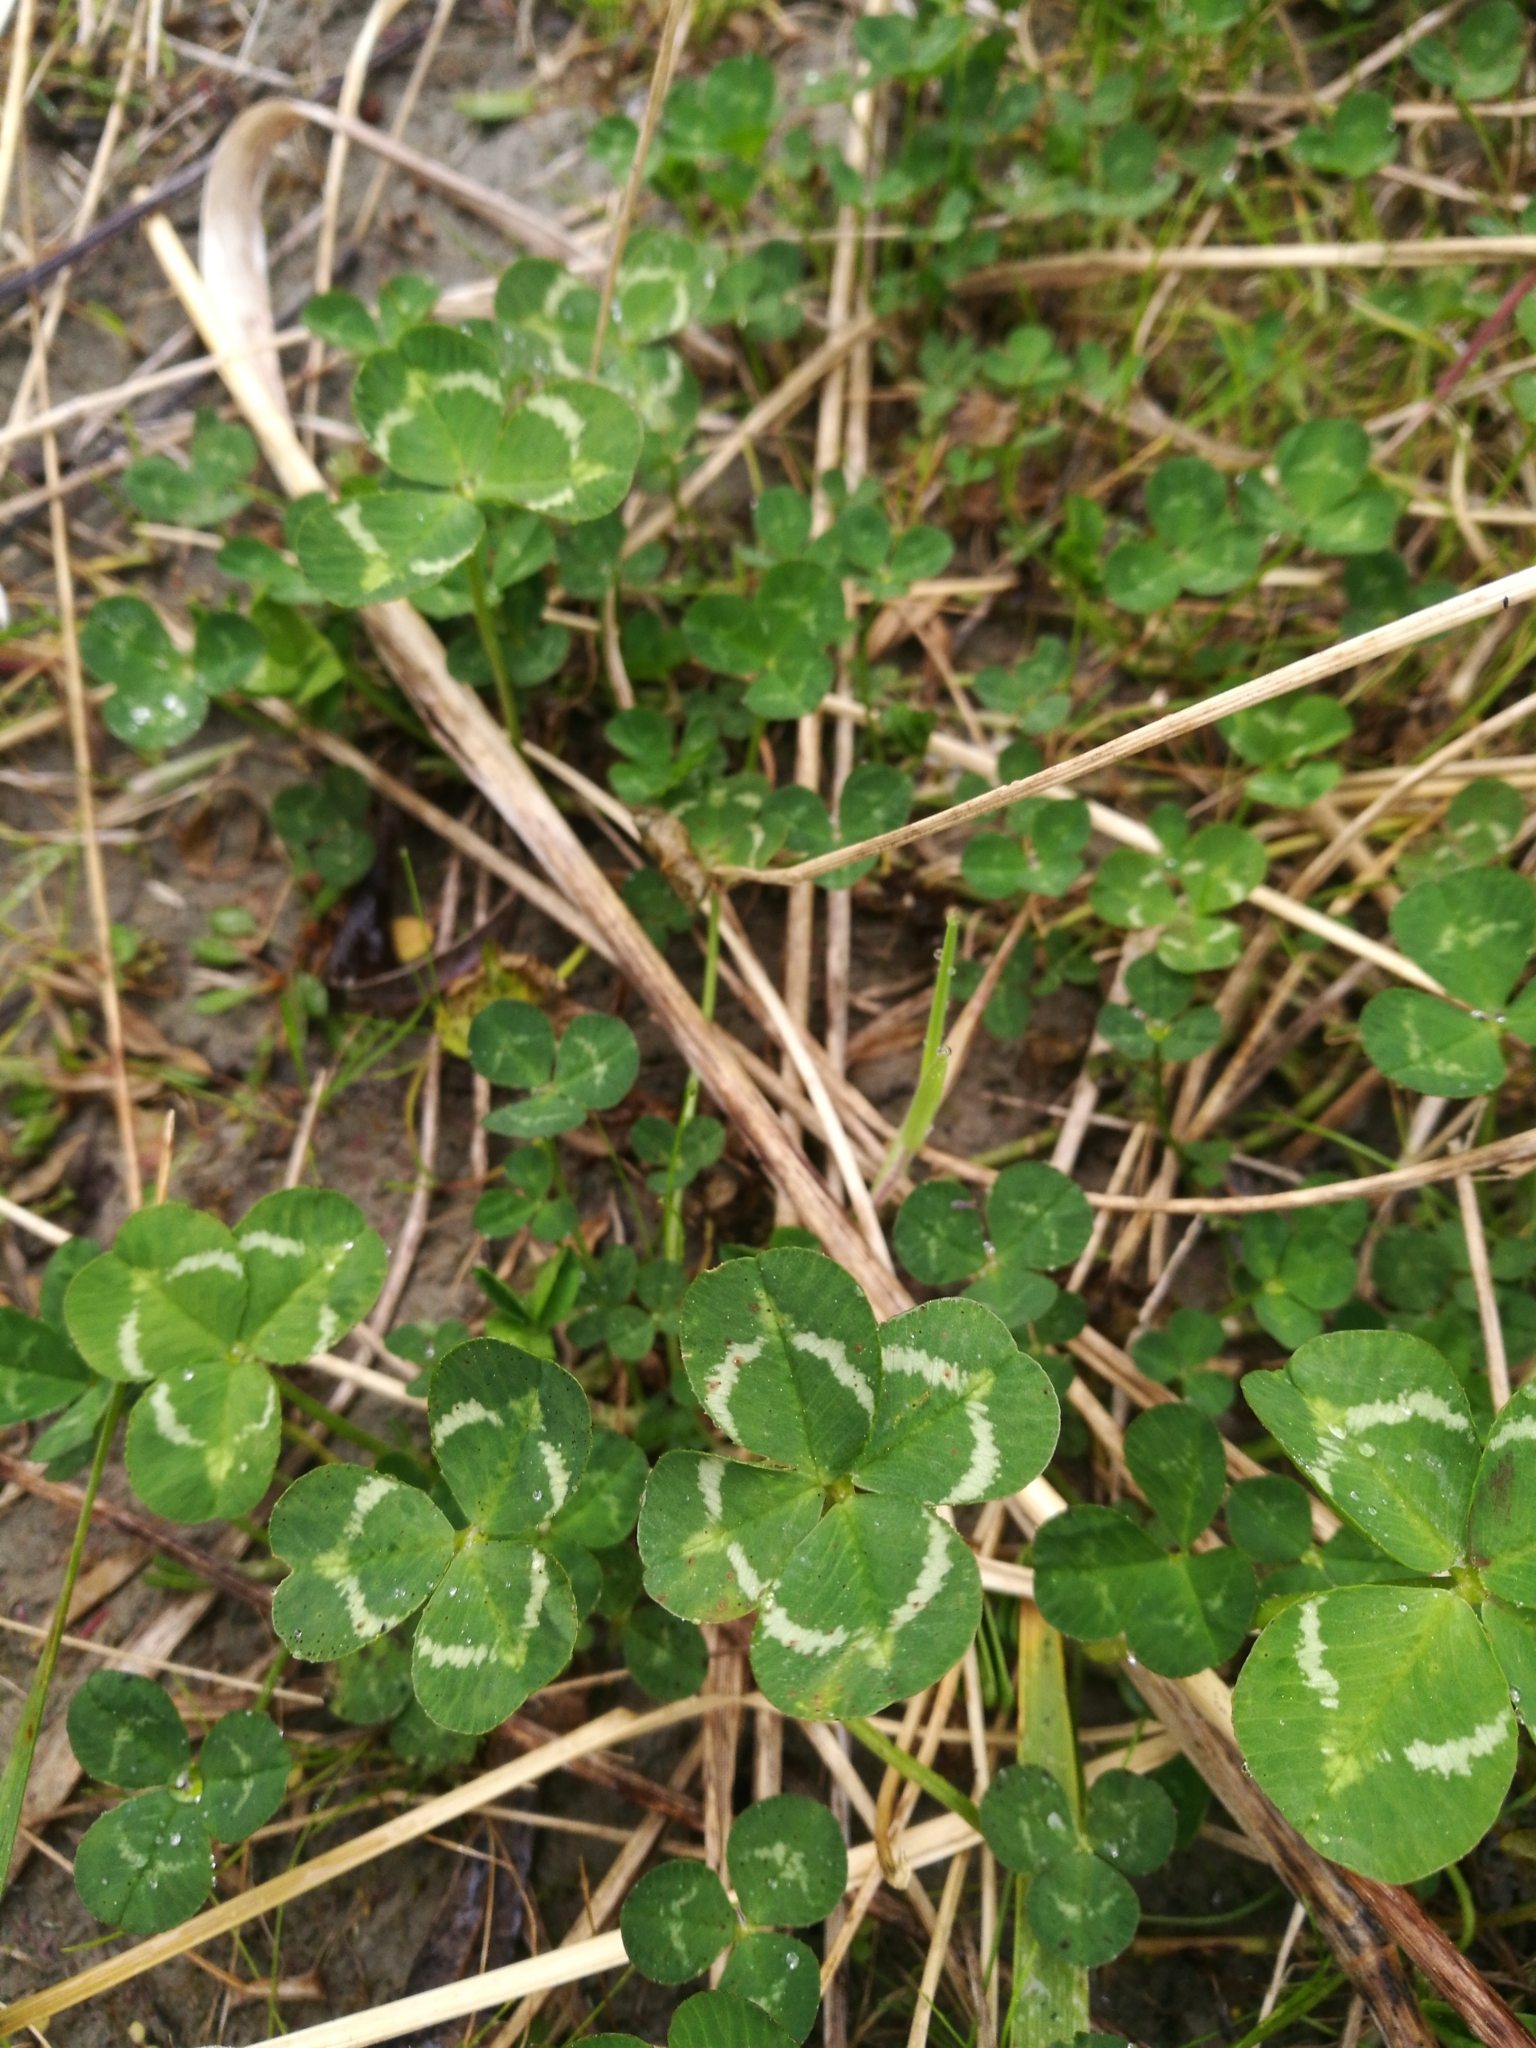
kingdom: Plantae
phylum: Tracheophyta
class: Magnoliopsida
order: Fabales
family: Fabaceae
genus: Trifolium
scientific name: Trifolium repens
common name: White clover
